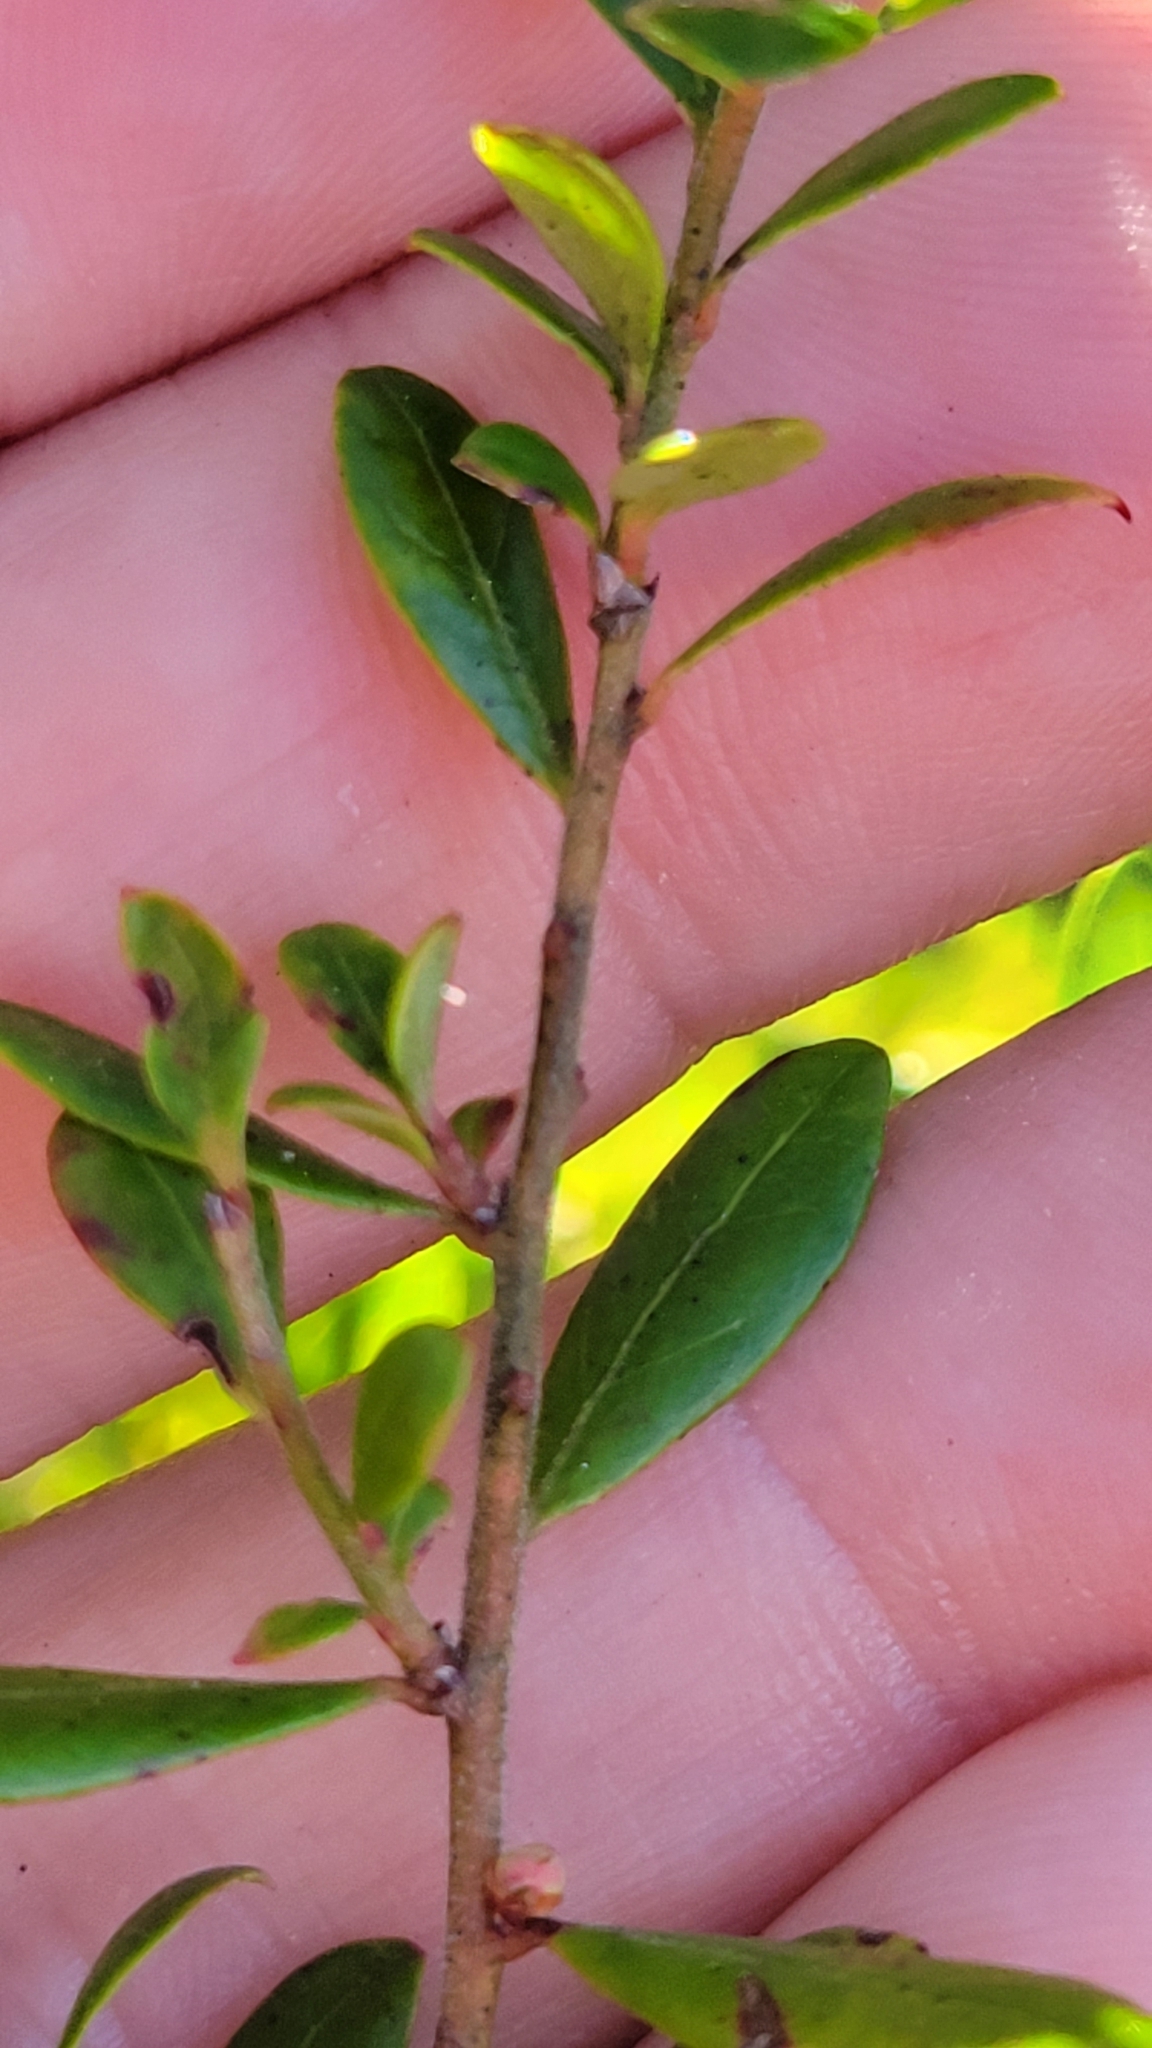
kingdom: Plantae
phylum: Tracheophyta
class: Magnoliopsida
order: Ericales
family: Ericaceae
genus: Lyonia
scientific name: Lyonia fruticosa
